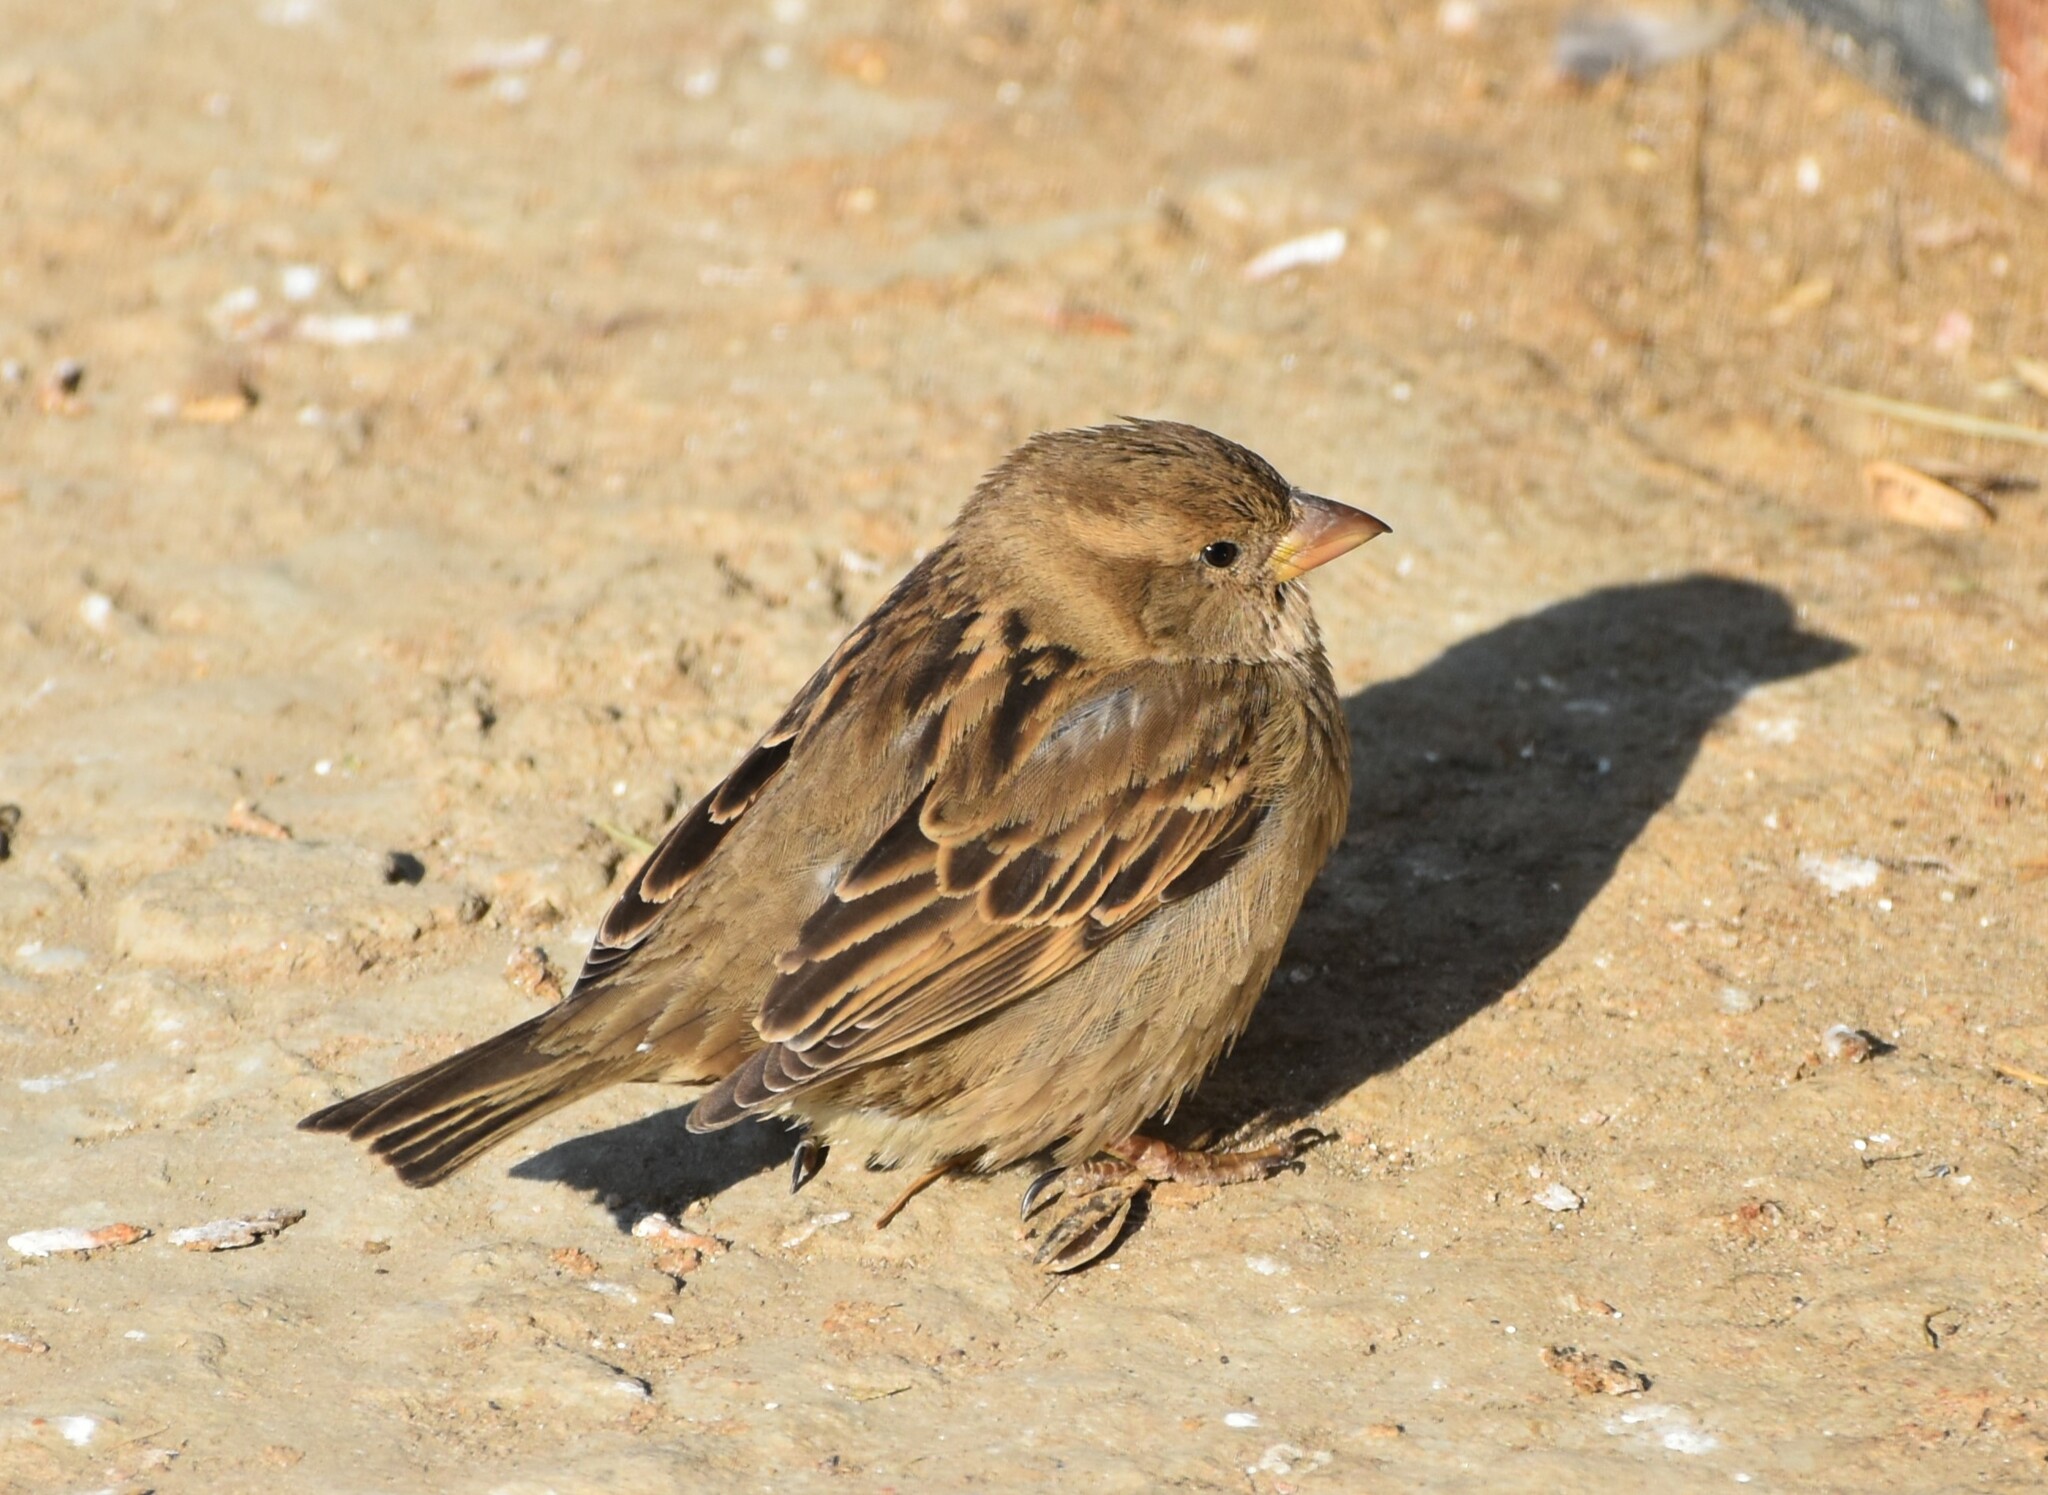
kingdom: Animalia
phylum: Chordata
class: Aves
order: Passeriformes
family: Passeridae
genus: Passer
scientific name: Passer domesticus
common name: House sparrow
